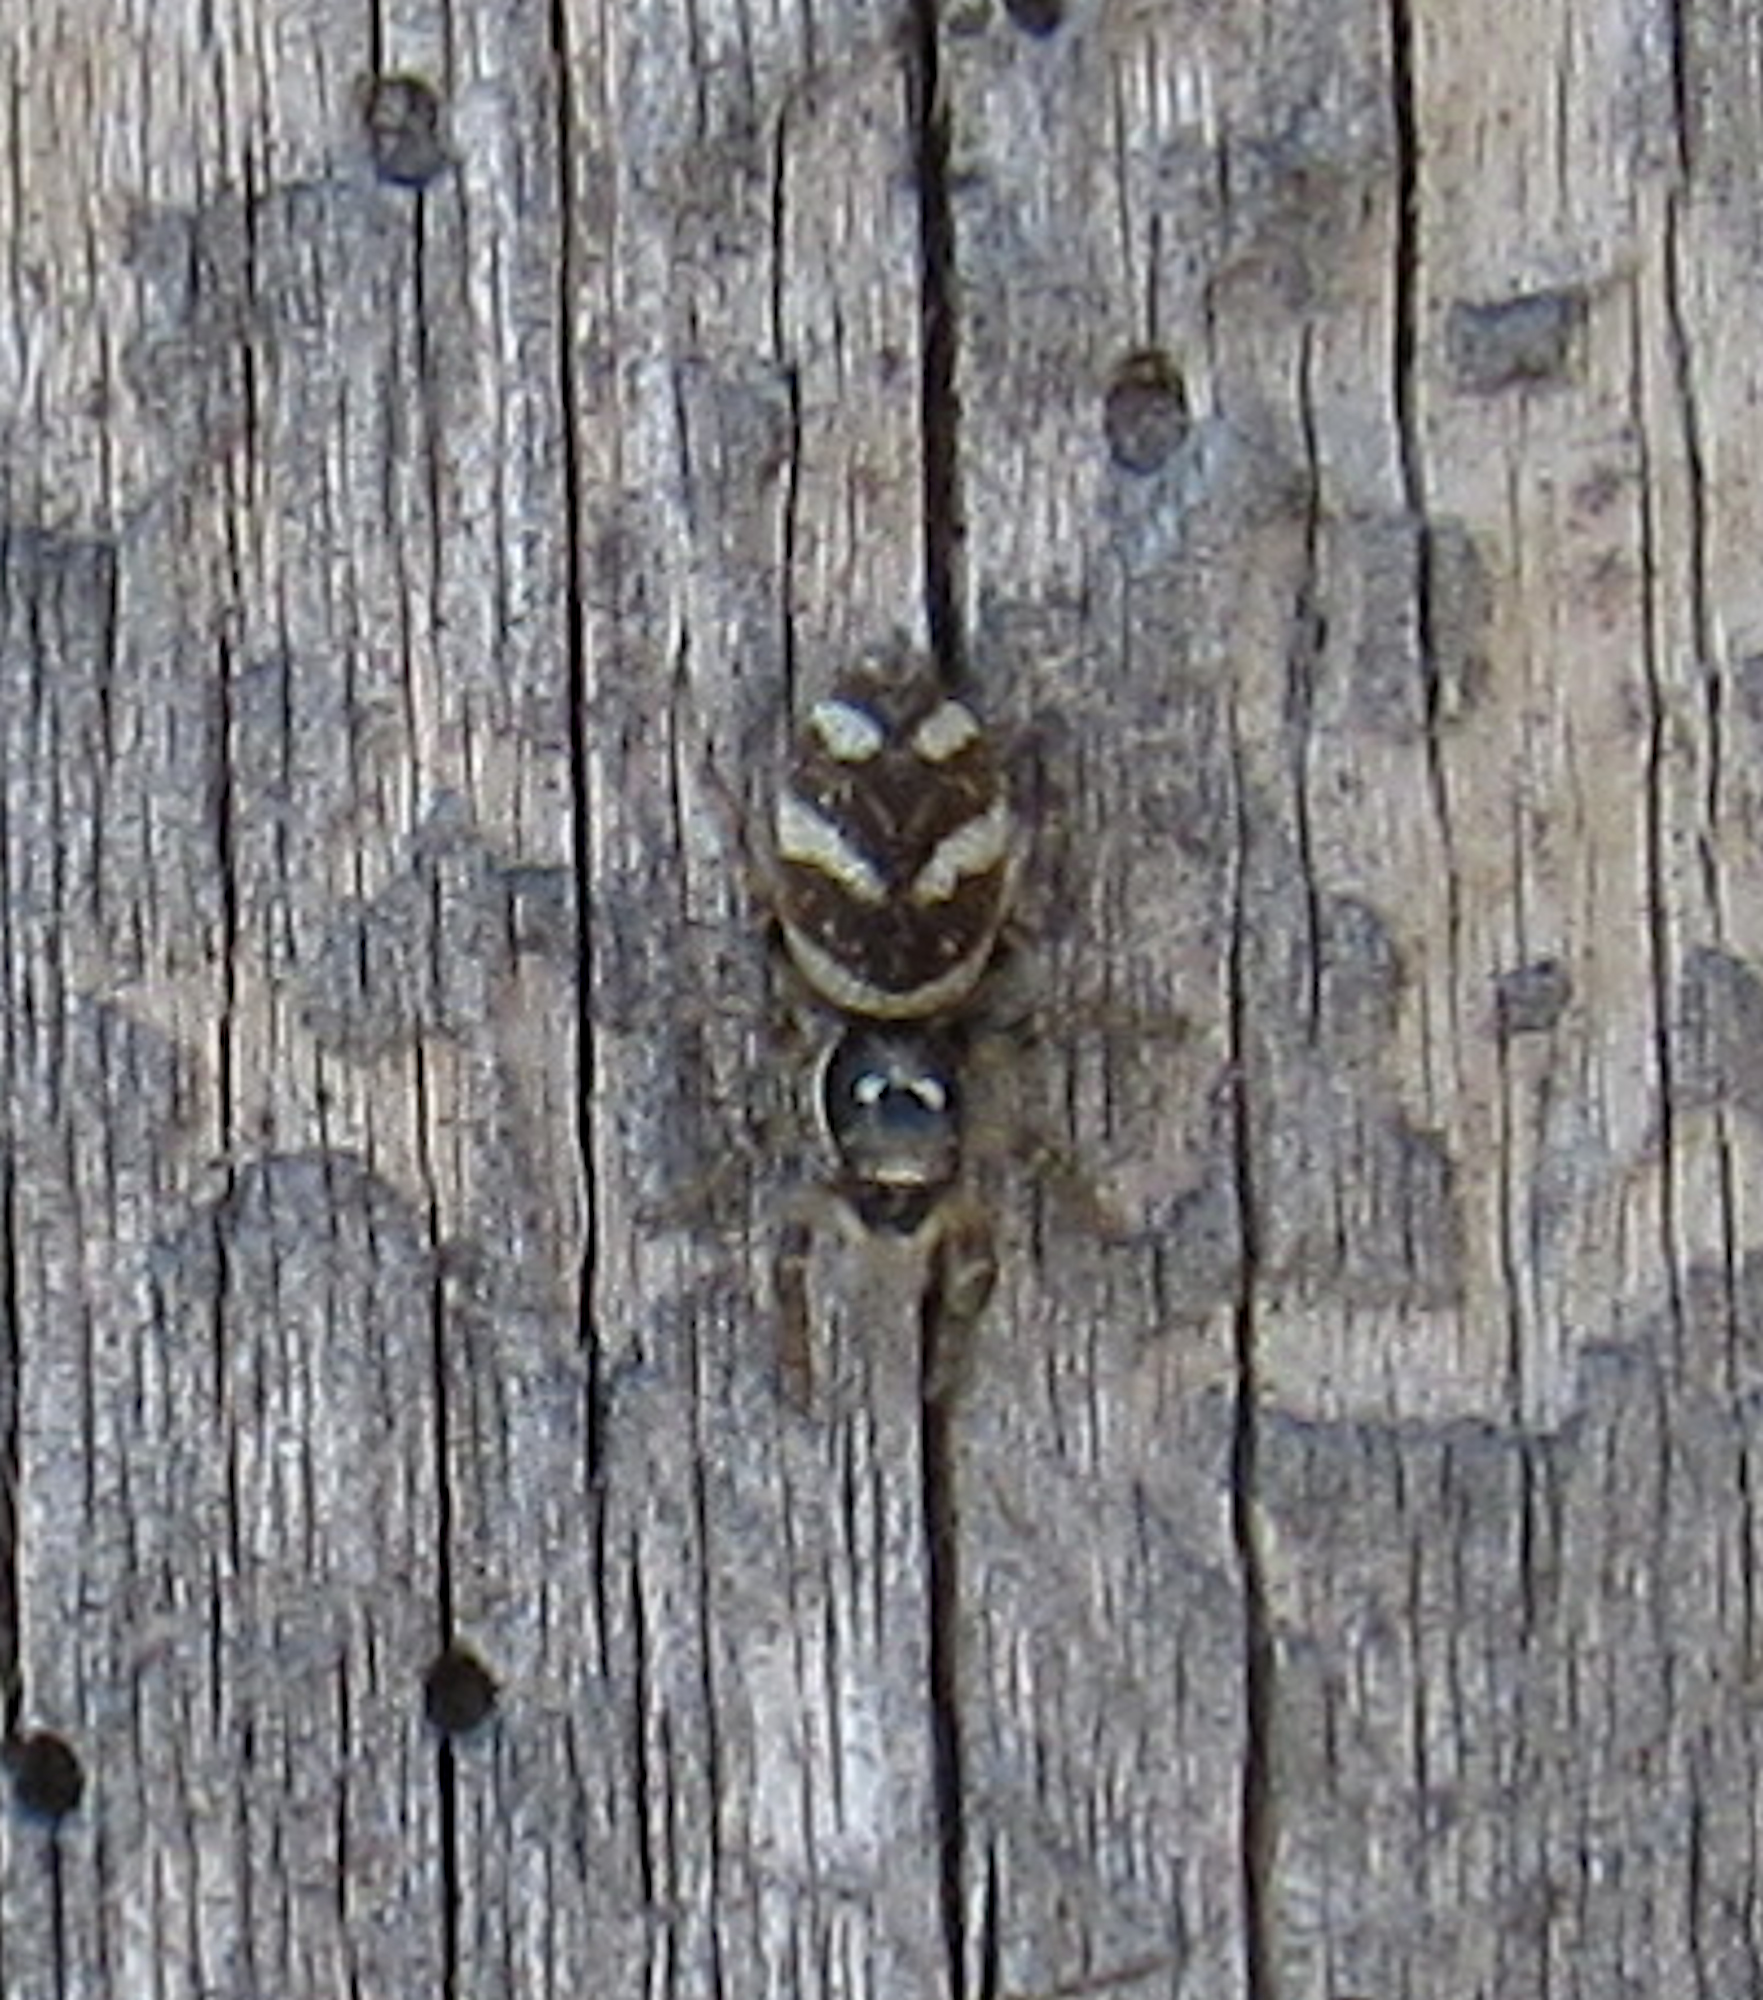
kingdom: Animalia
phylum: Arthropoda
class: Arachnida
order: Araneae
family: Salticidae
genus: Salticus
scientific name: Salticus scenicus
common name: Zebra jumper
